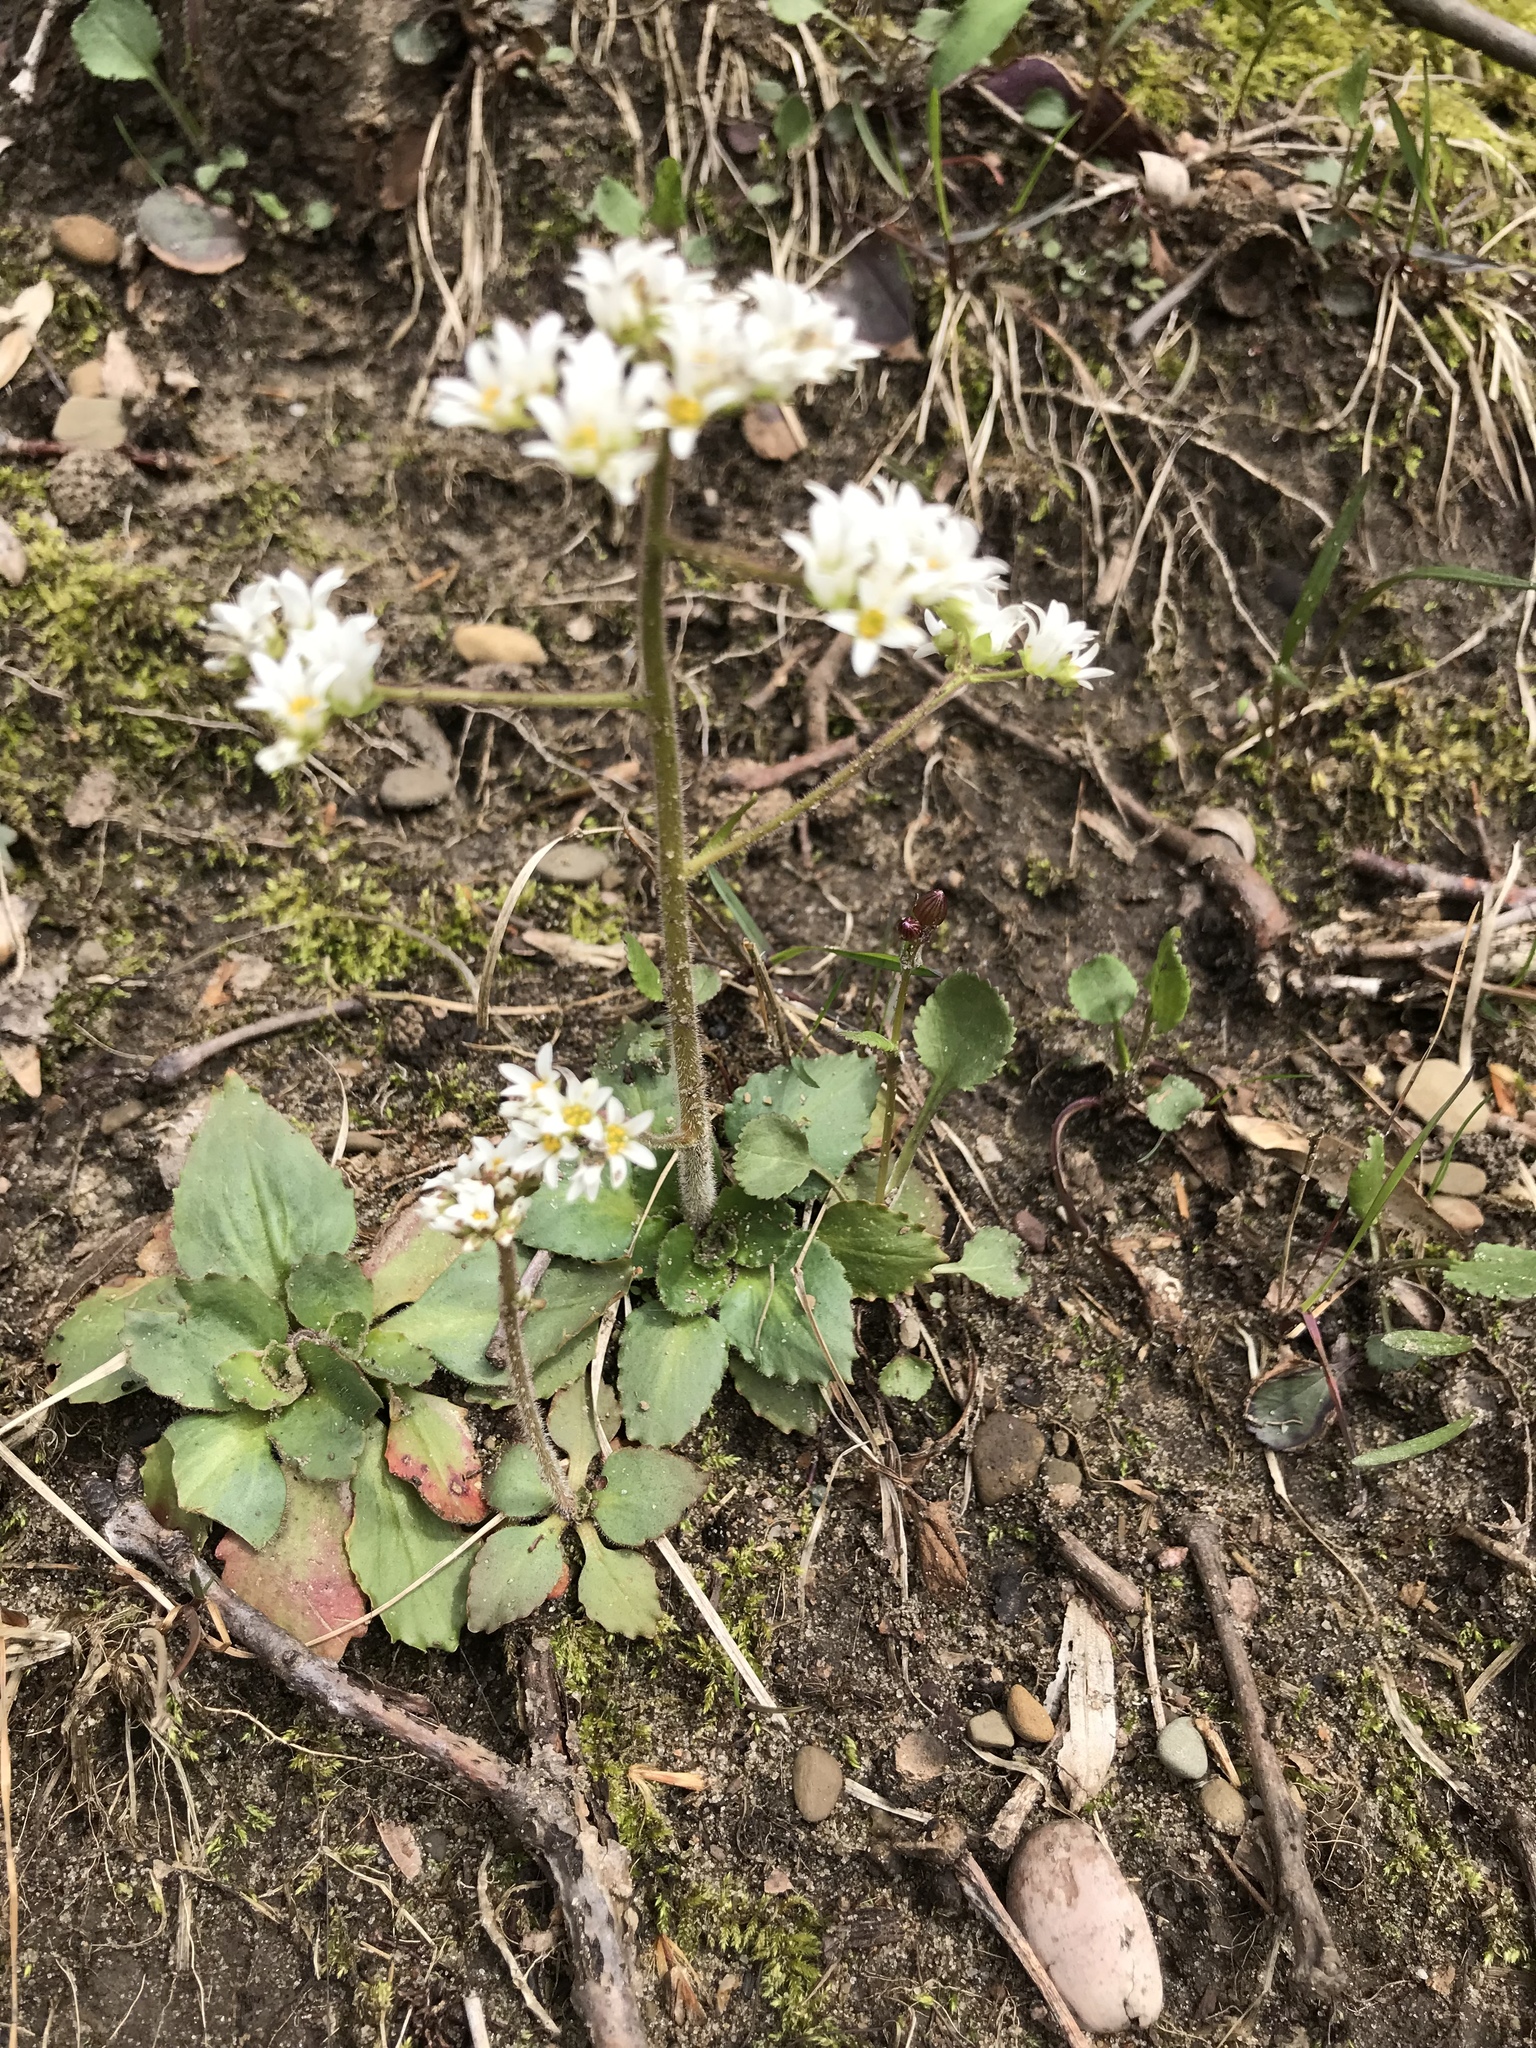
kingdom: Plantae
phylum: Tracheophyta
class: Magnoliopsida
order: Saxifragales
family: Saxifragaceae
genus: Micranthes
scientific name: Micranthes virginiensis
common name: Early saxifrage
